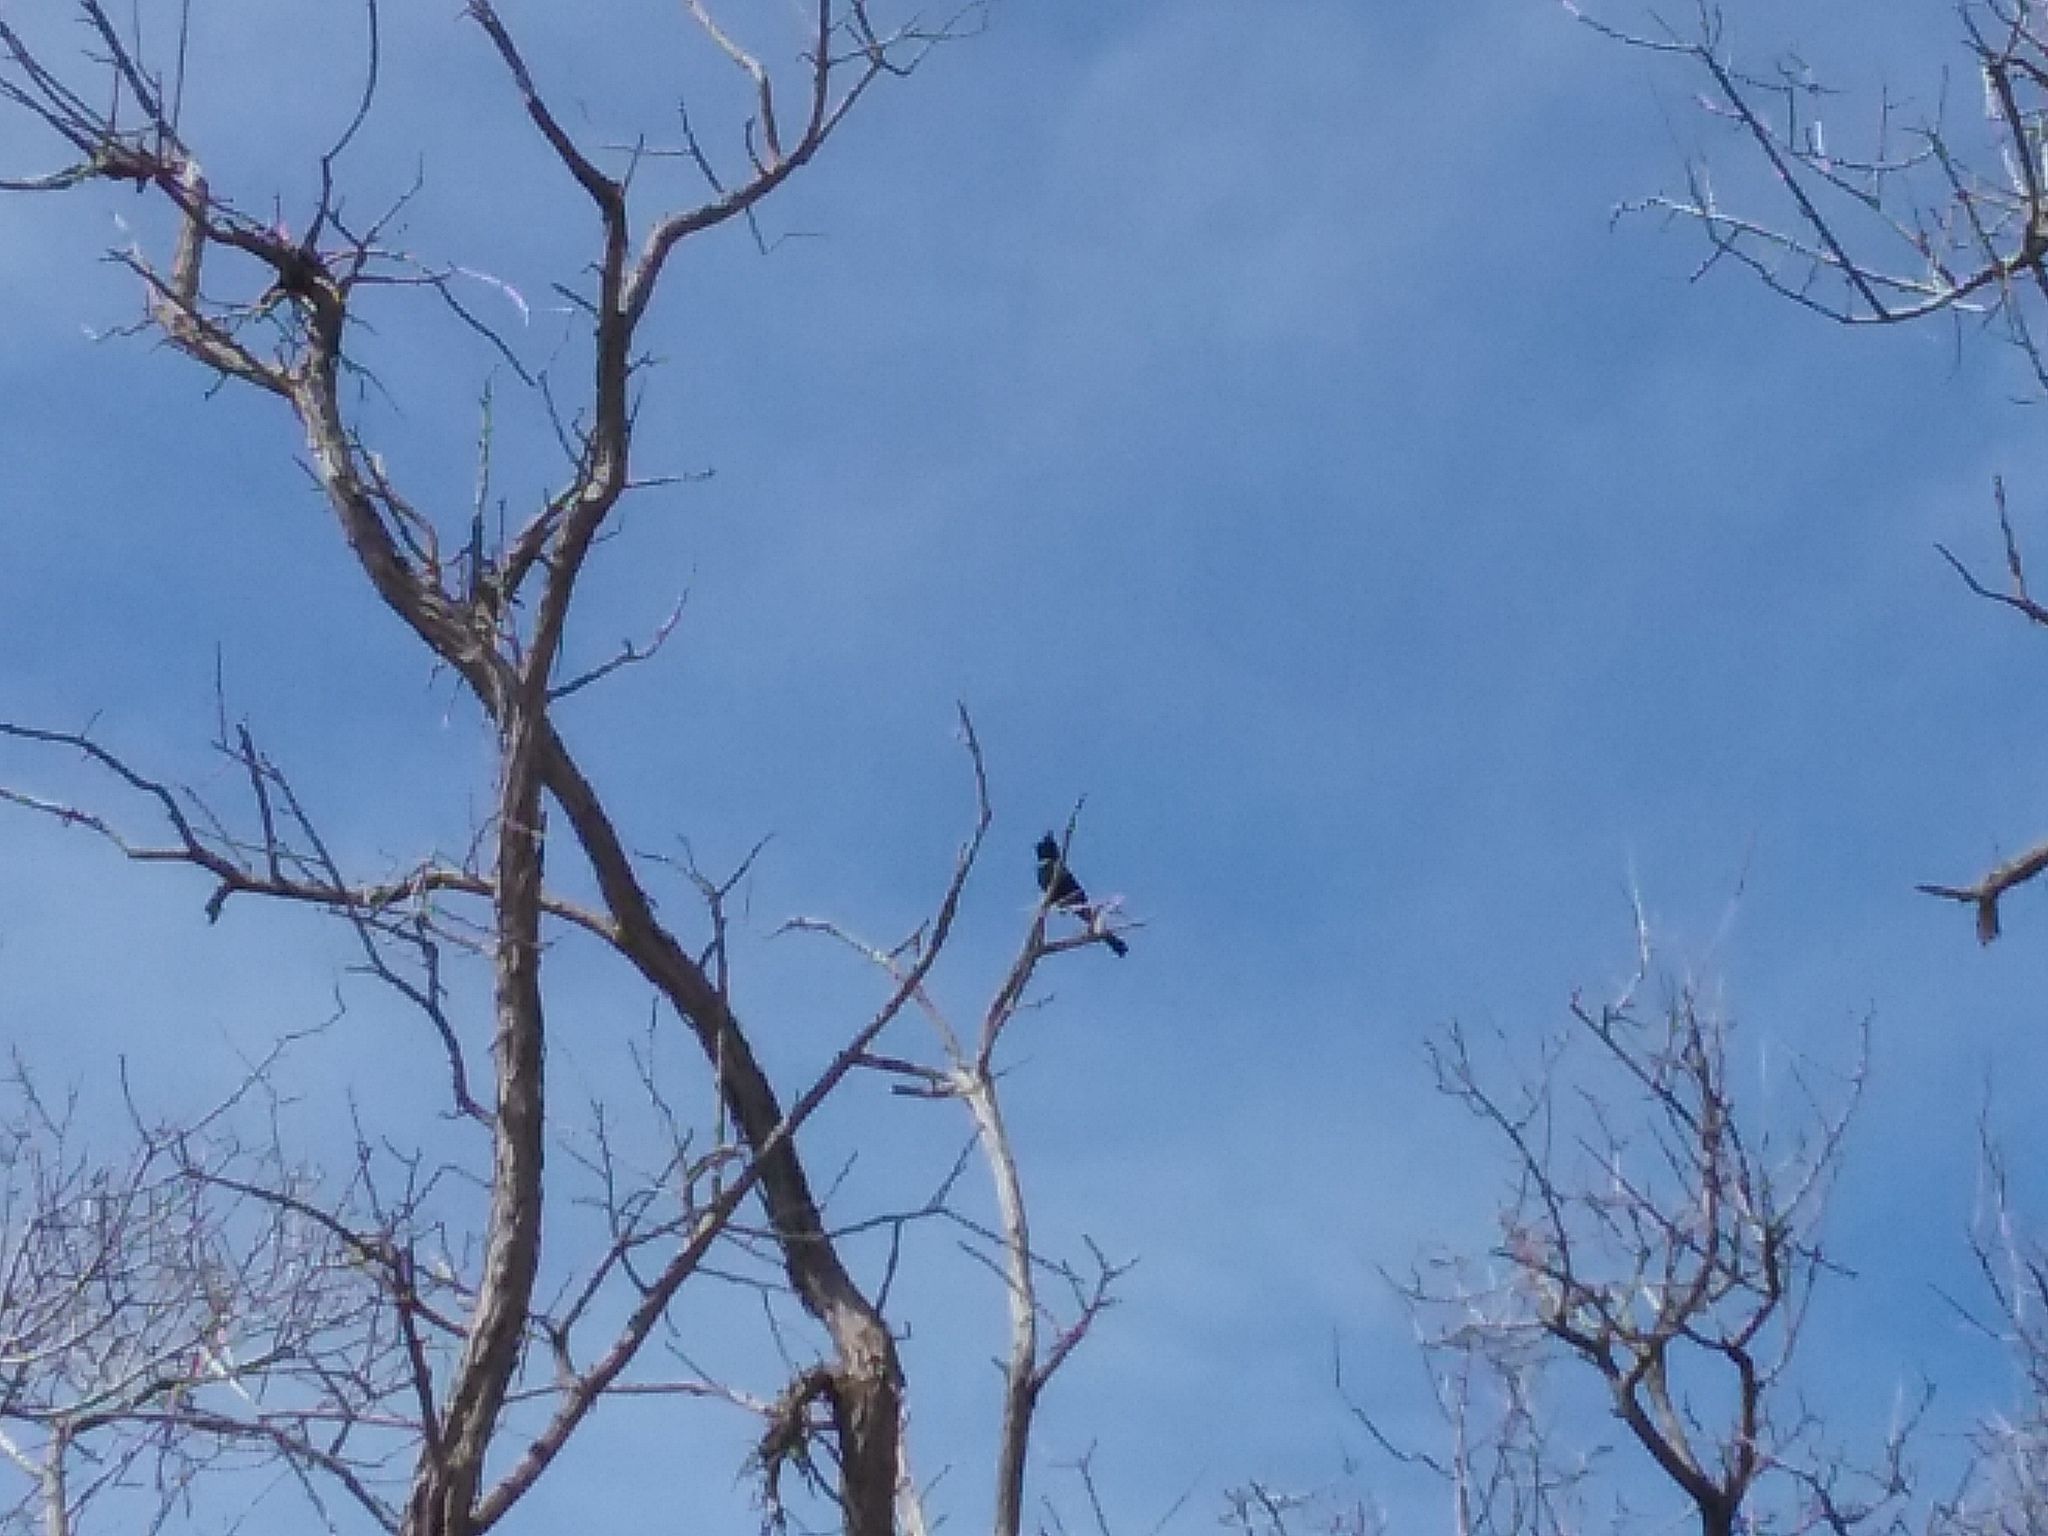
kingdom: Animalia
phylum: Chordata
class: Aves
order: Passeriformes
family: Ptilogonatidae
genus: Phainopepla
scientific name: Phainopepla nitens
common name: Phainopepla
